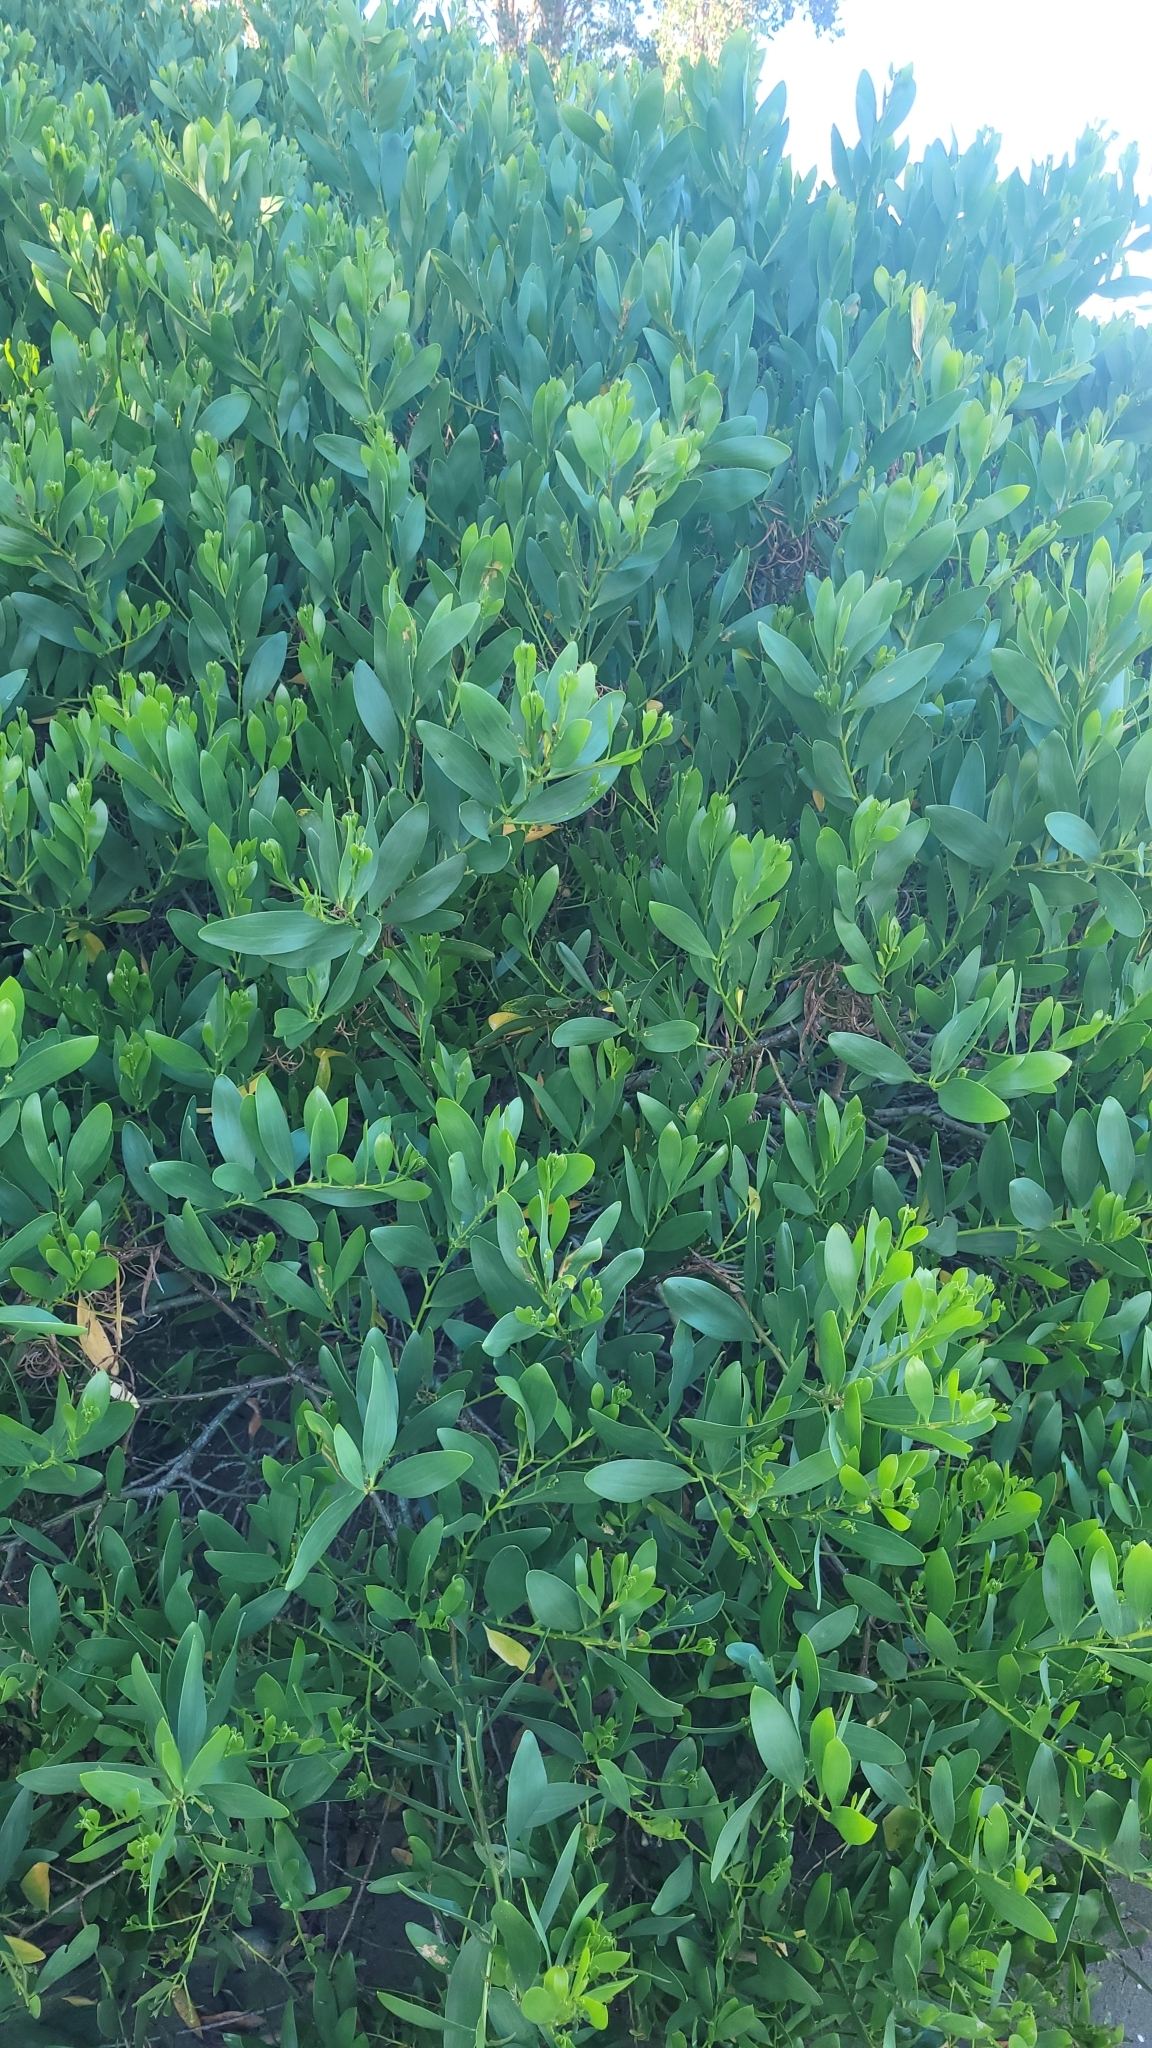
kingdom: Plantae
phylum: Tracheophyta
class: Magnoliopsida
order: Fabales
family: Fabaceae
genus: Acacia
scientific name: Acacia longifolia
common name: Sydney golden wattle
